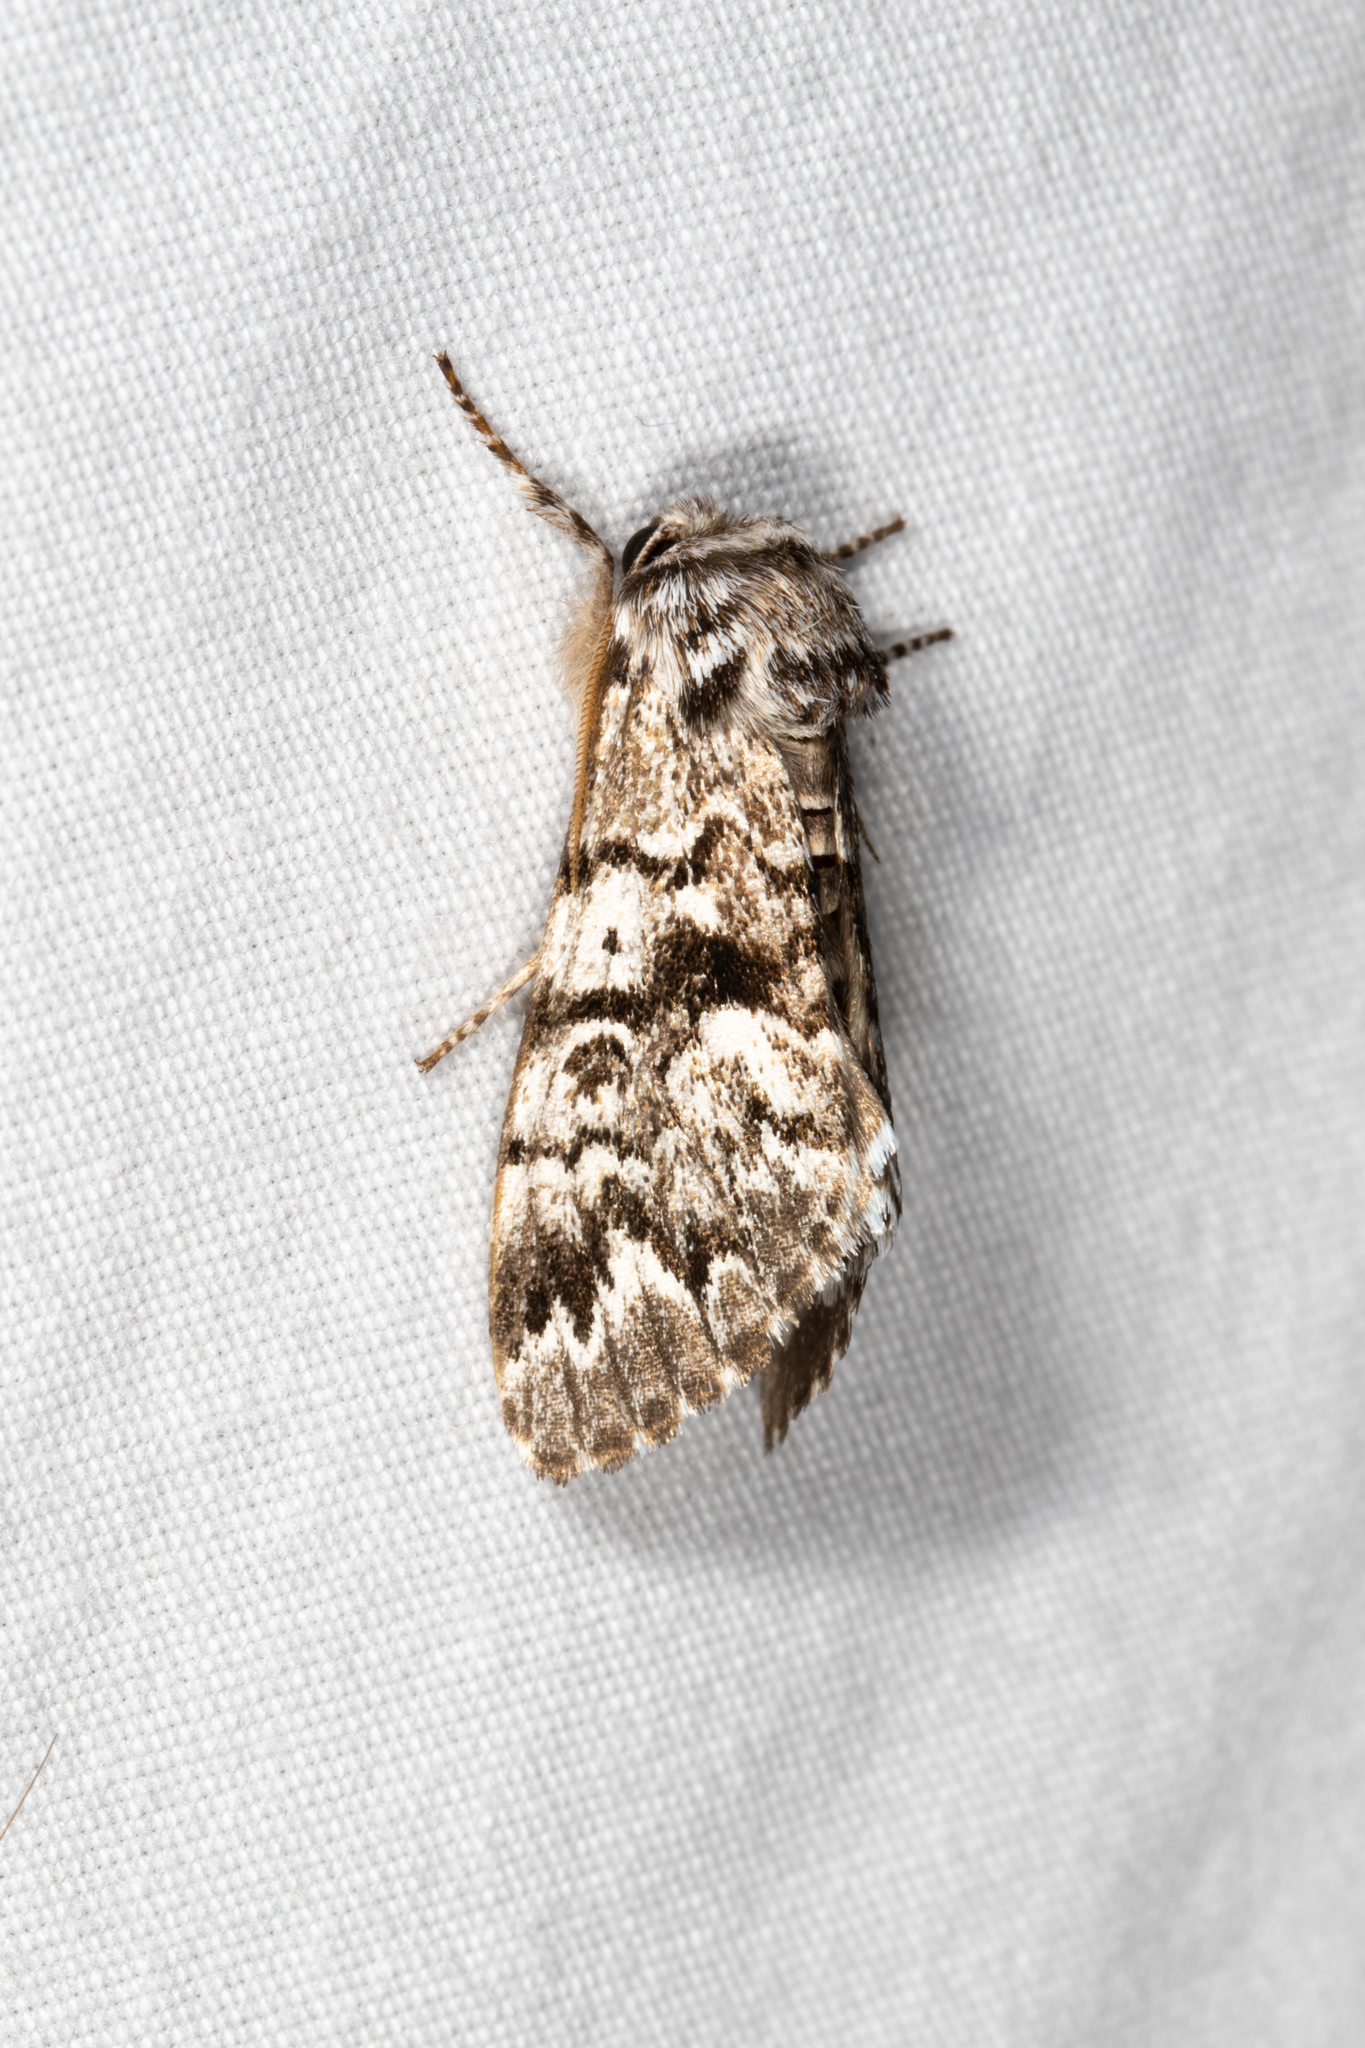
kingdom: Animalia
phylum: Arthropoda
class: Insecta
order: Lepidoptera
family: Noctuidae
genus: Panthea
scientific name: Panthea acronyctoides
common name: Black zigzag moth
